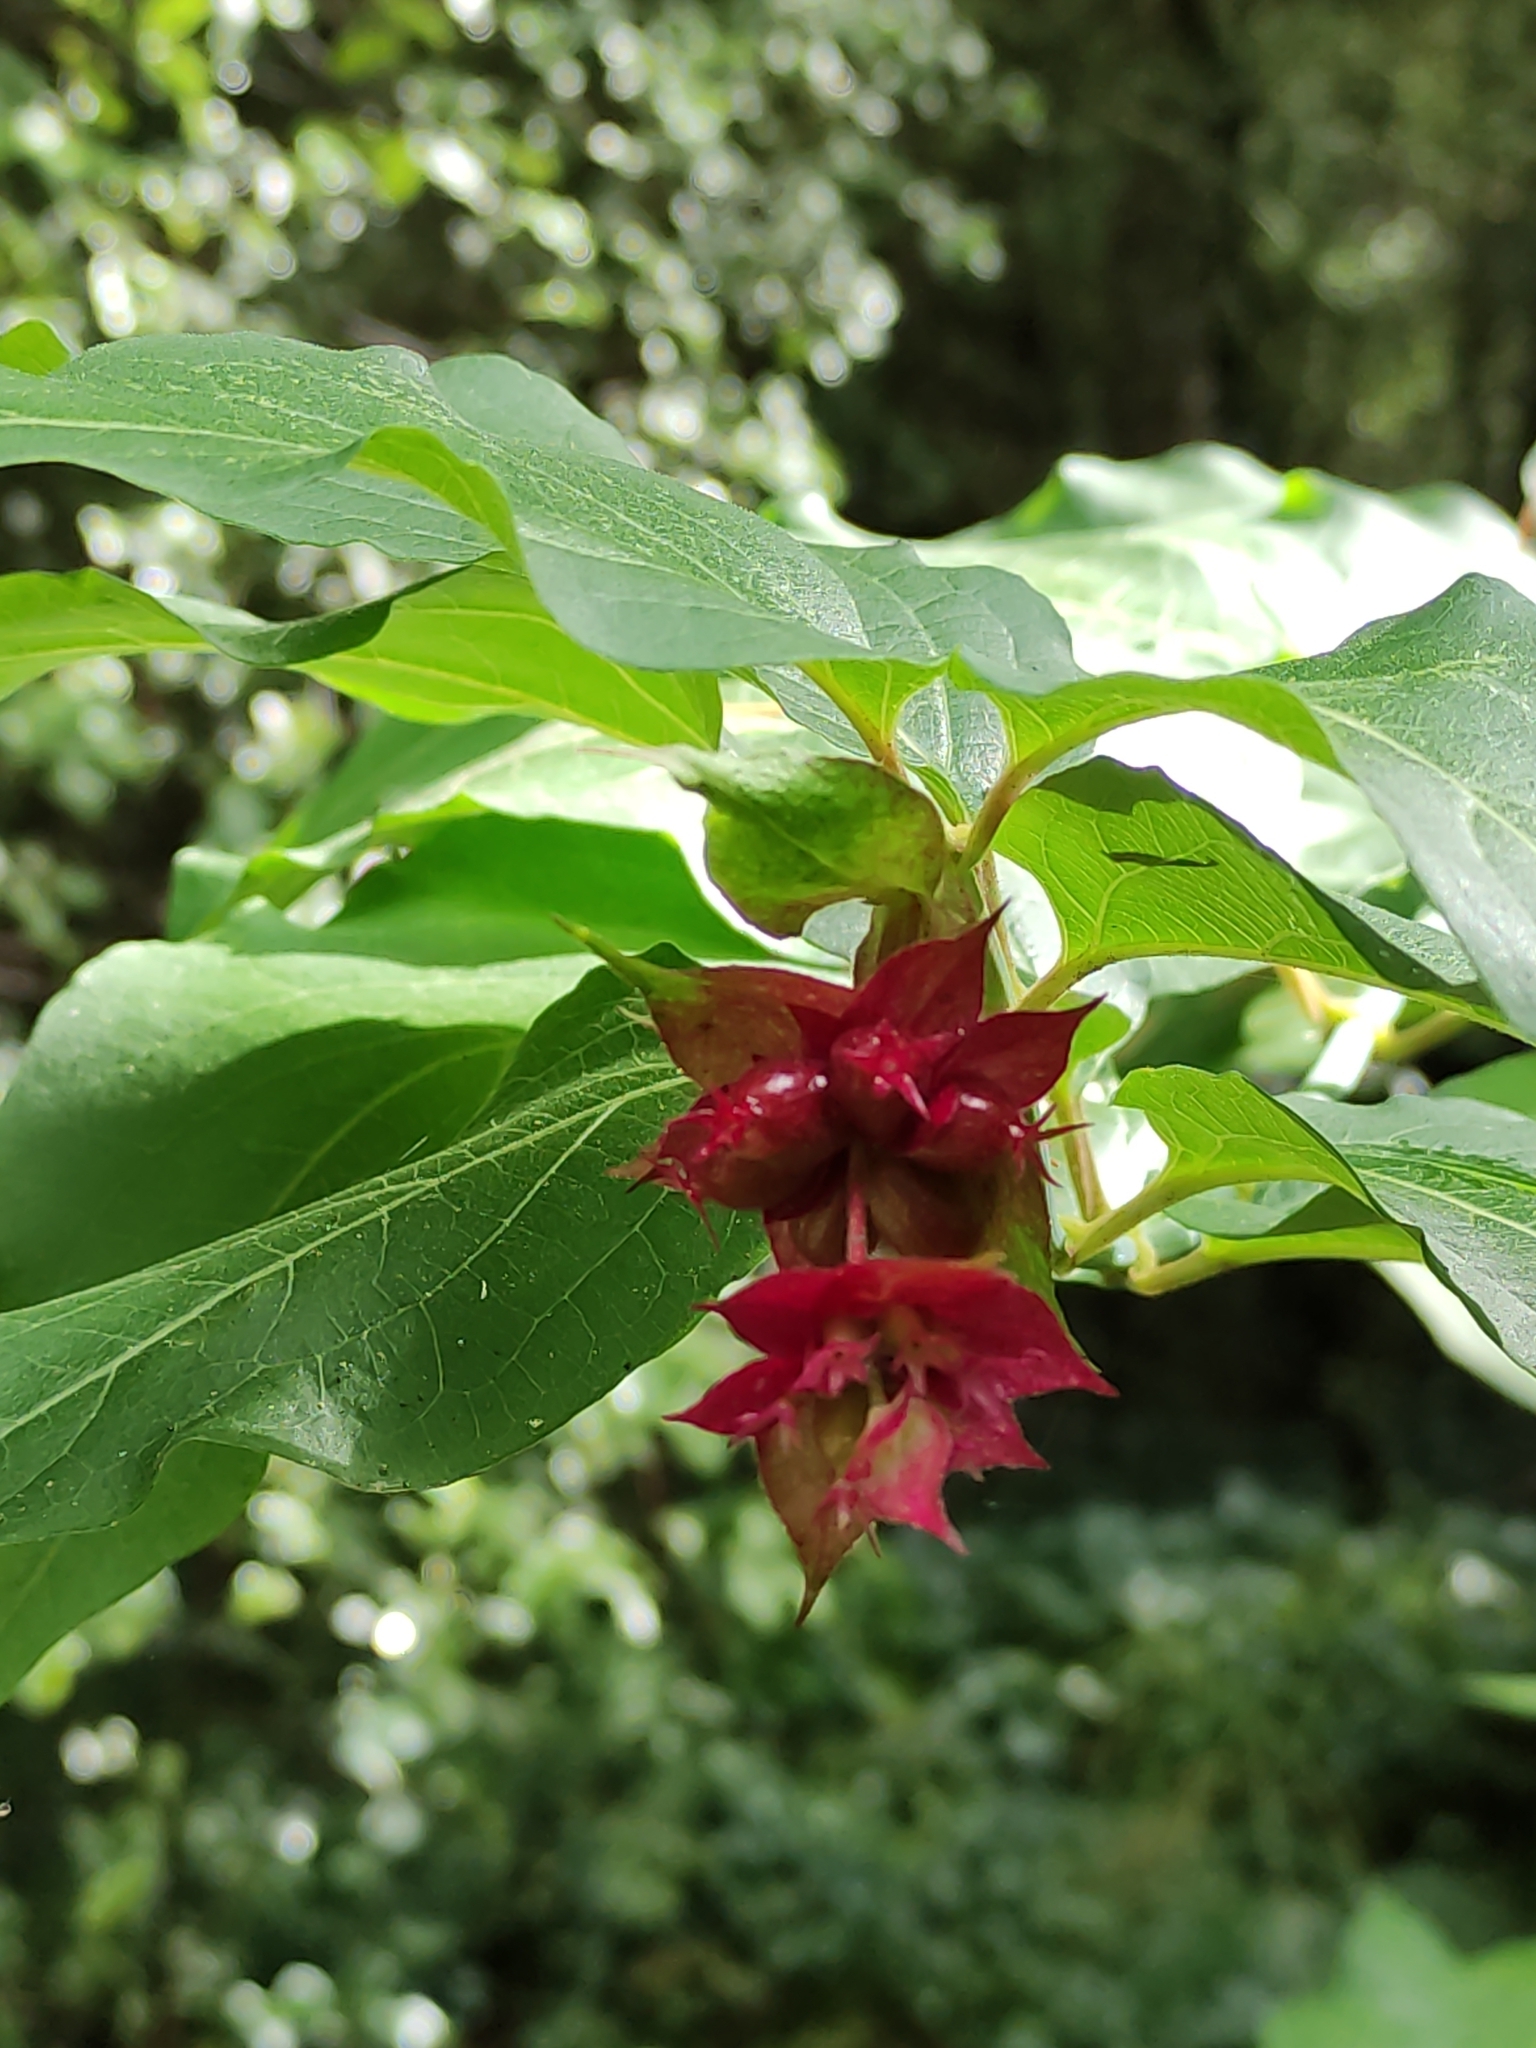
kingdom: Plantae
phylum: Tracheophyta
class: Magnoliopsida
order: Dipsacales
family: Caprifoliaceae
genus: Leycesteria
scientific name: Leycesteria formosa
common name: Himalayan honeysuckle
